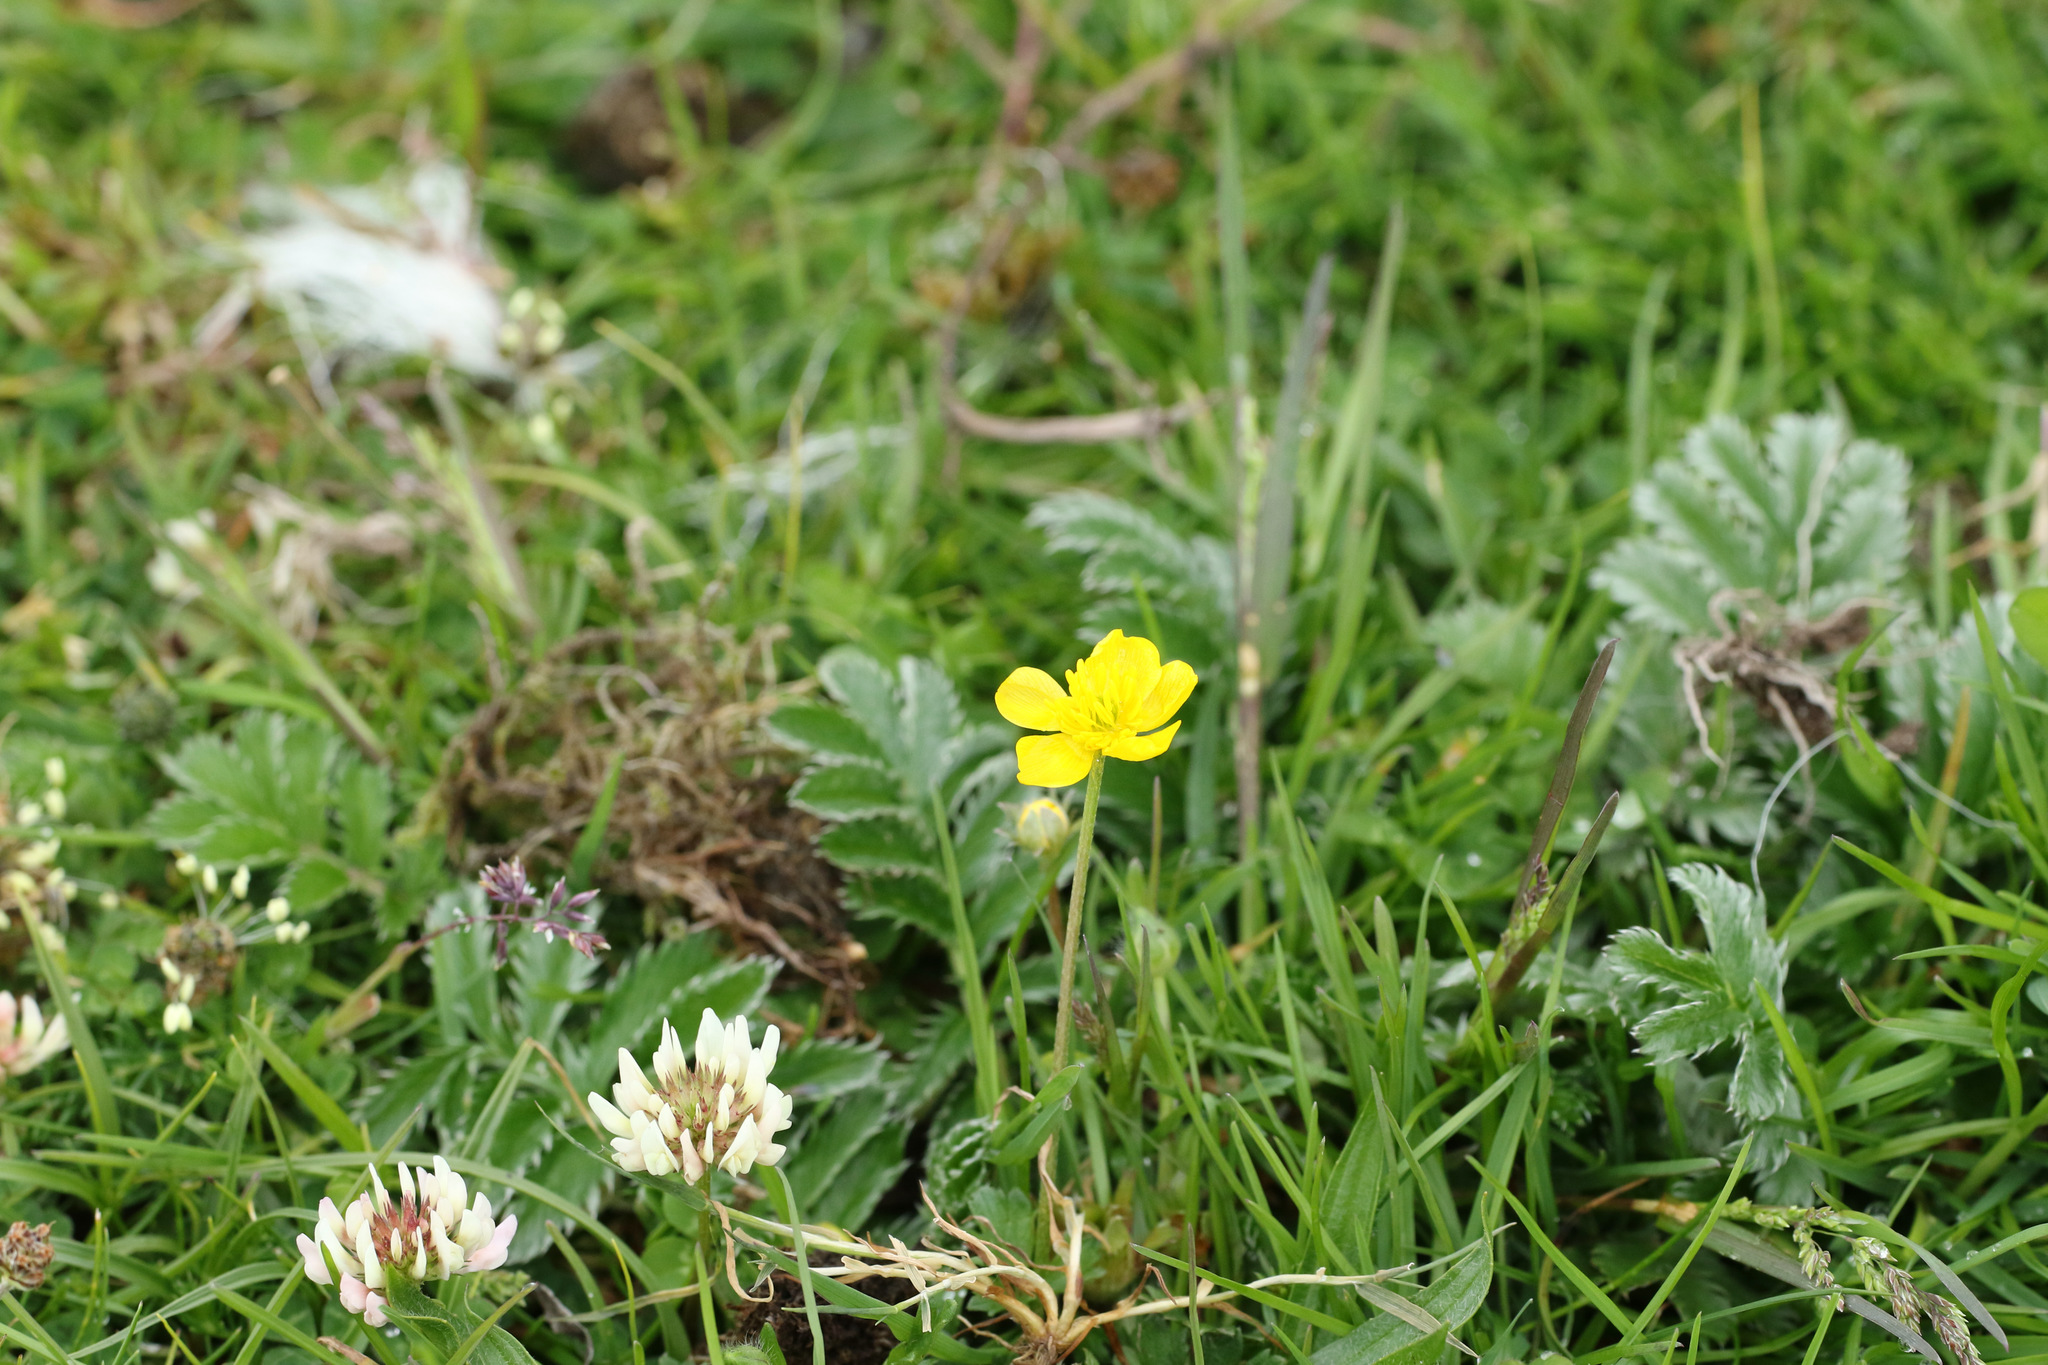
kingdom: Plantae
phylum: Tracheophyta
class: Magnoliopsida
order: Rosales
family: Rosaceae
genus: Argentina
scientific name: Argentina anserina
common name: Common silverweed
